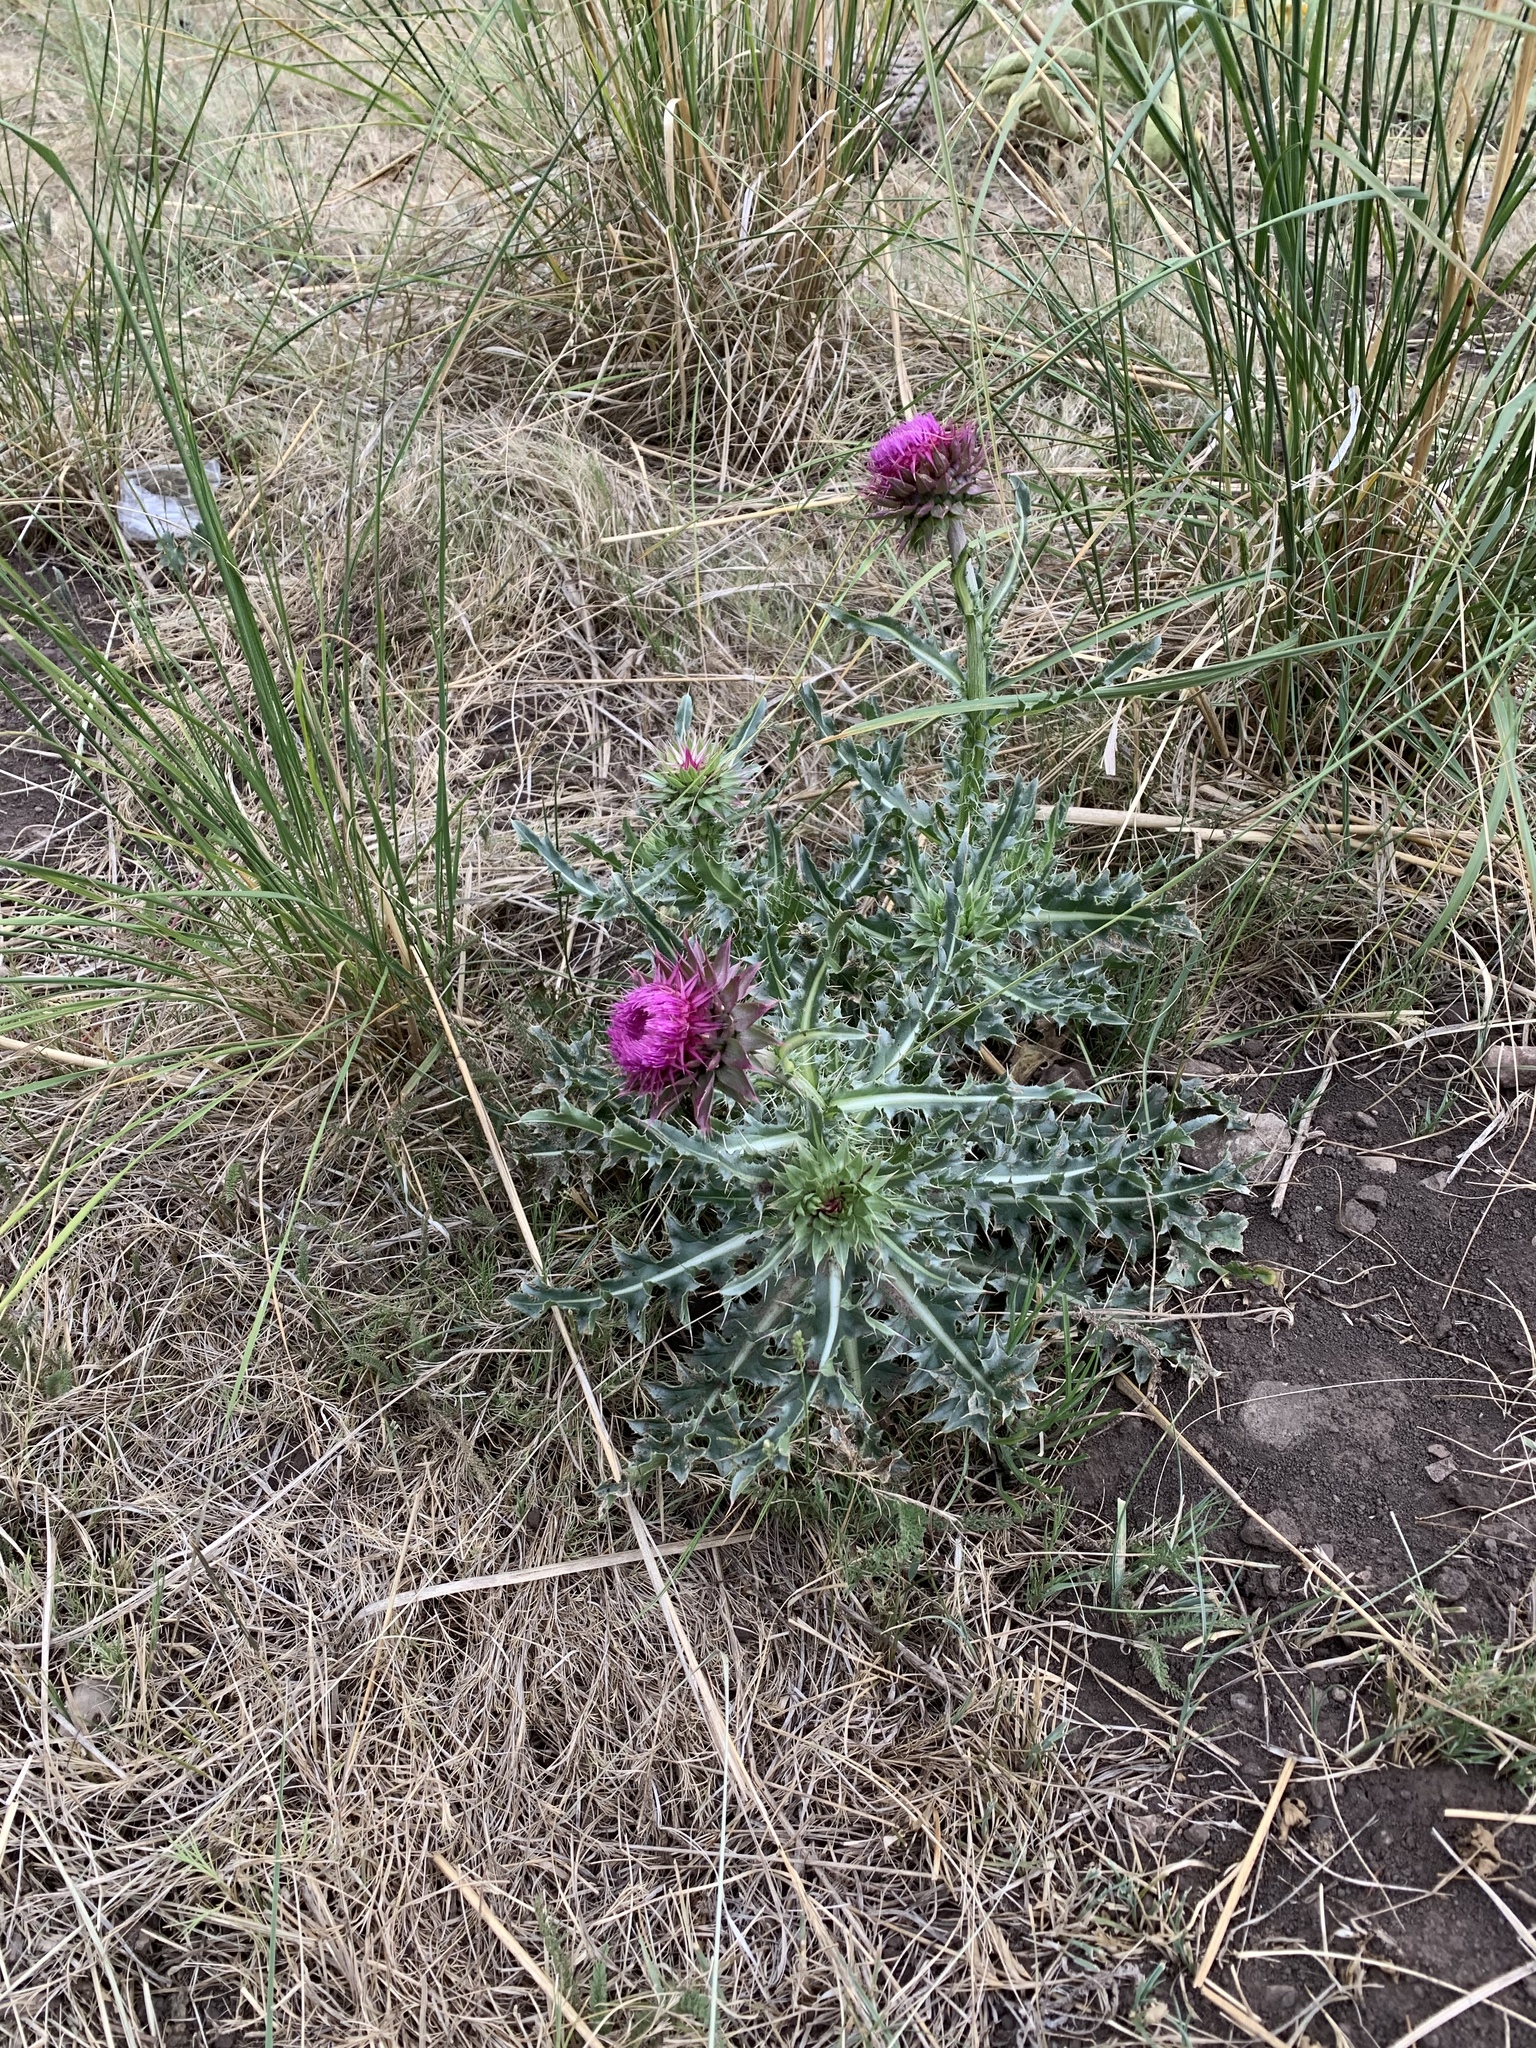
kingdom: Plantae
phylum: Tracheophyta
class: Magnoliopsida
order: Asterales
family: Asteraceae
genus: Carduus
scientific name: Carduus nutans
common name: Musk thistle
